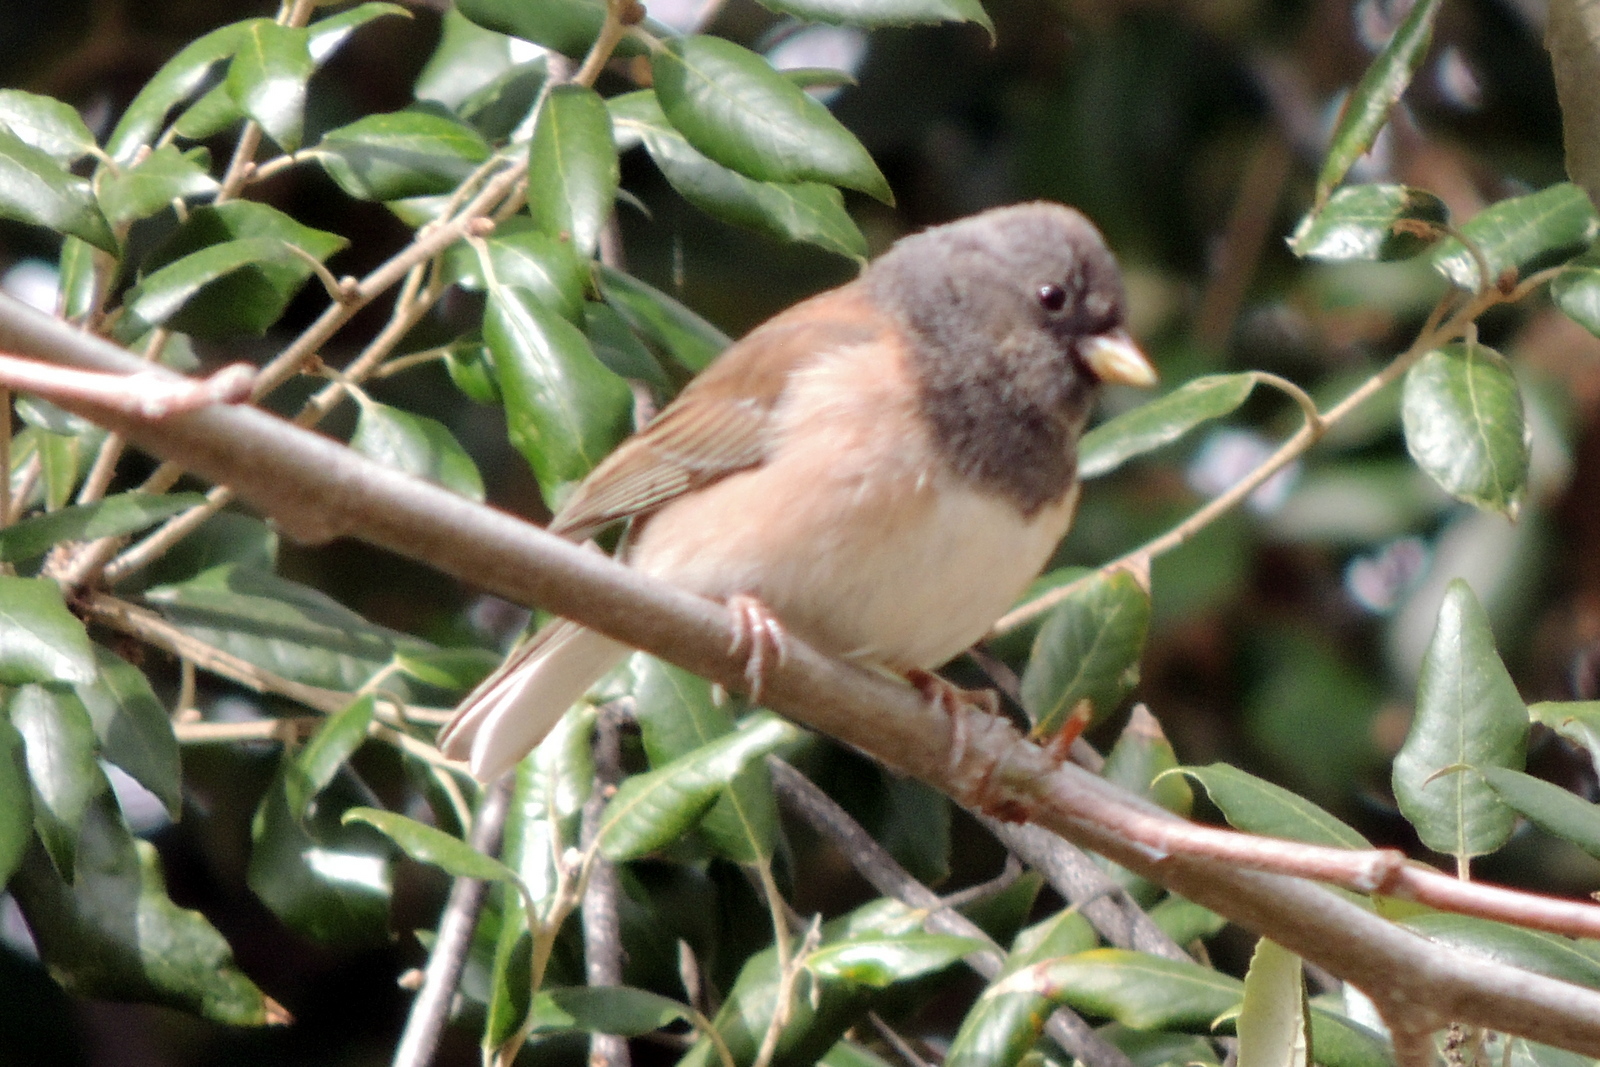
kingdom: Animalia
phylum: Chordata
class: Aves
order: Passeriformes
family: Passerellidae
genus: Junco
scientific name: Junco hyemalis
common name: Dark-eyed junco
